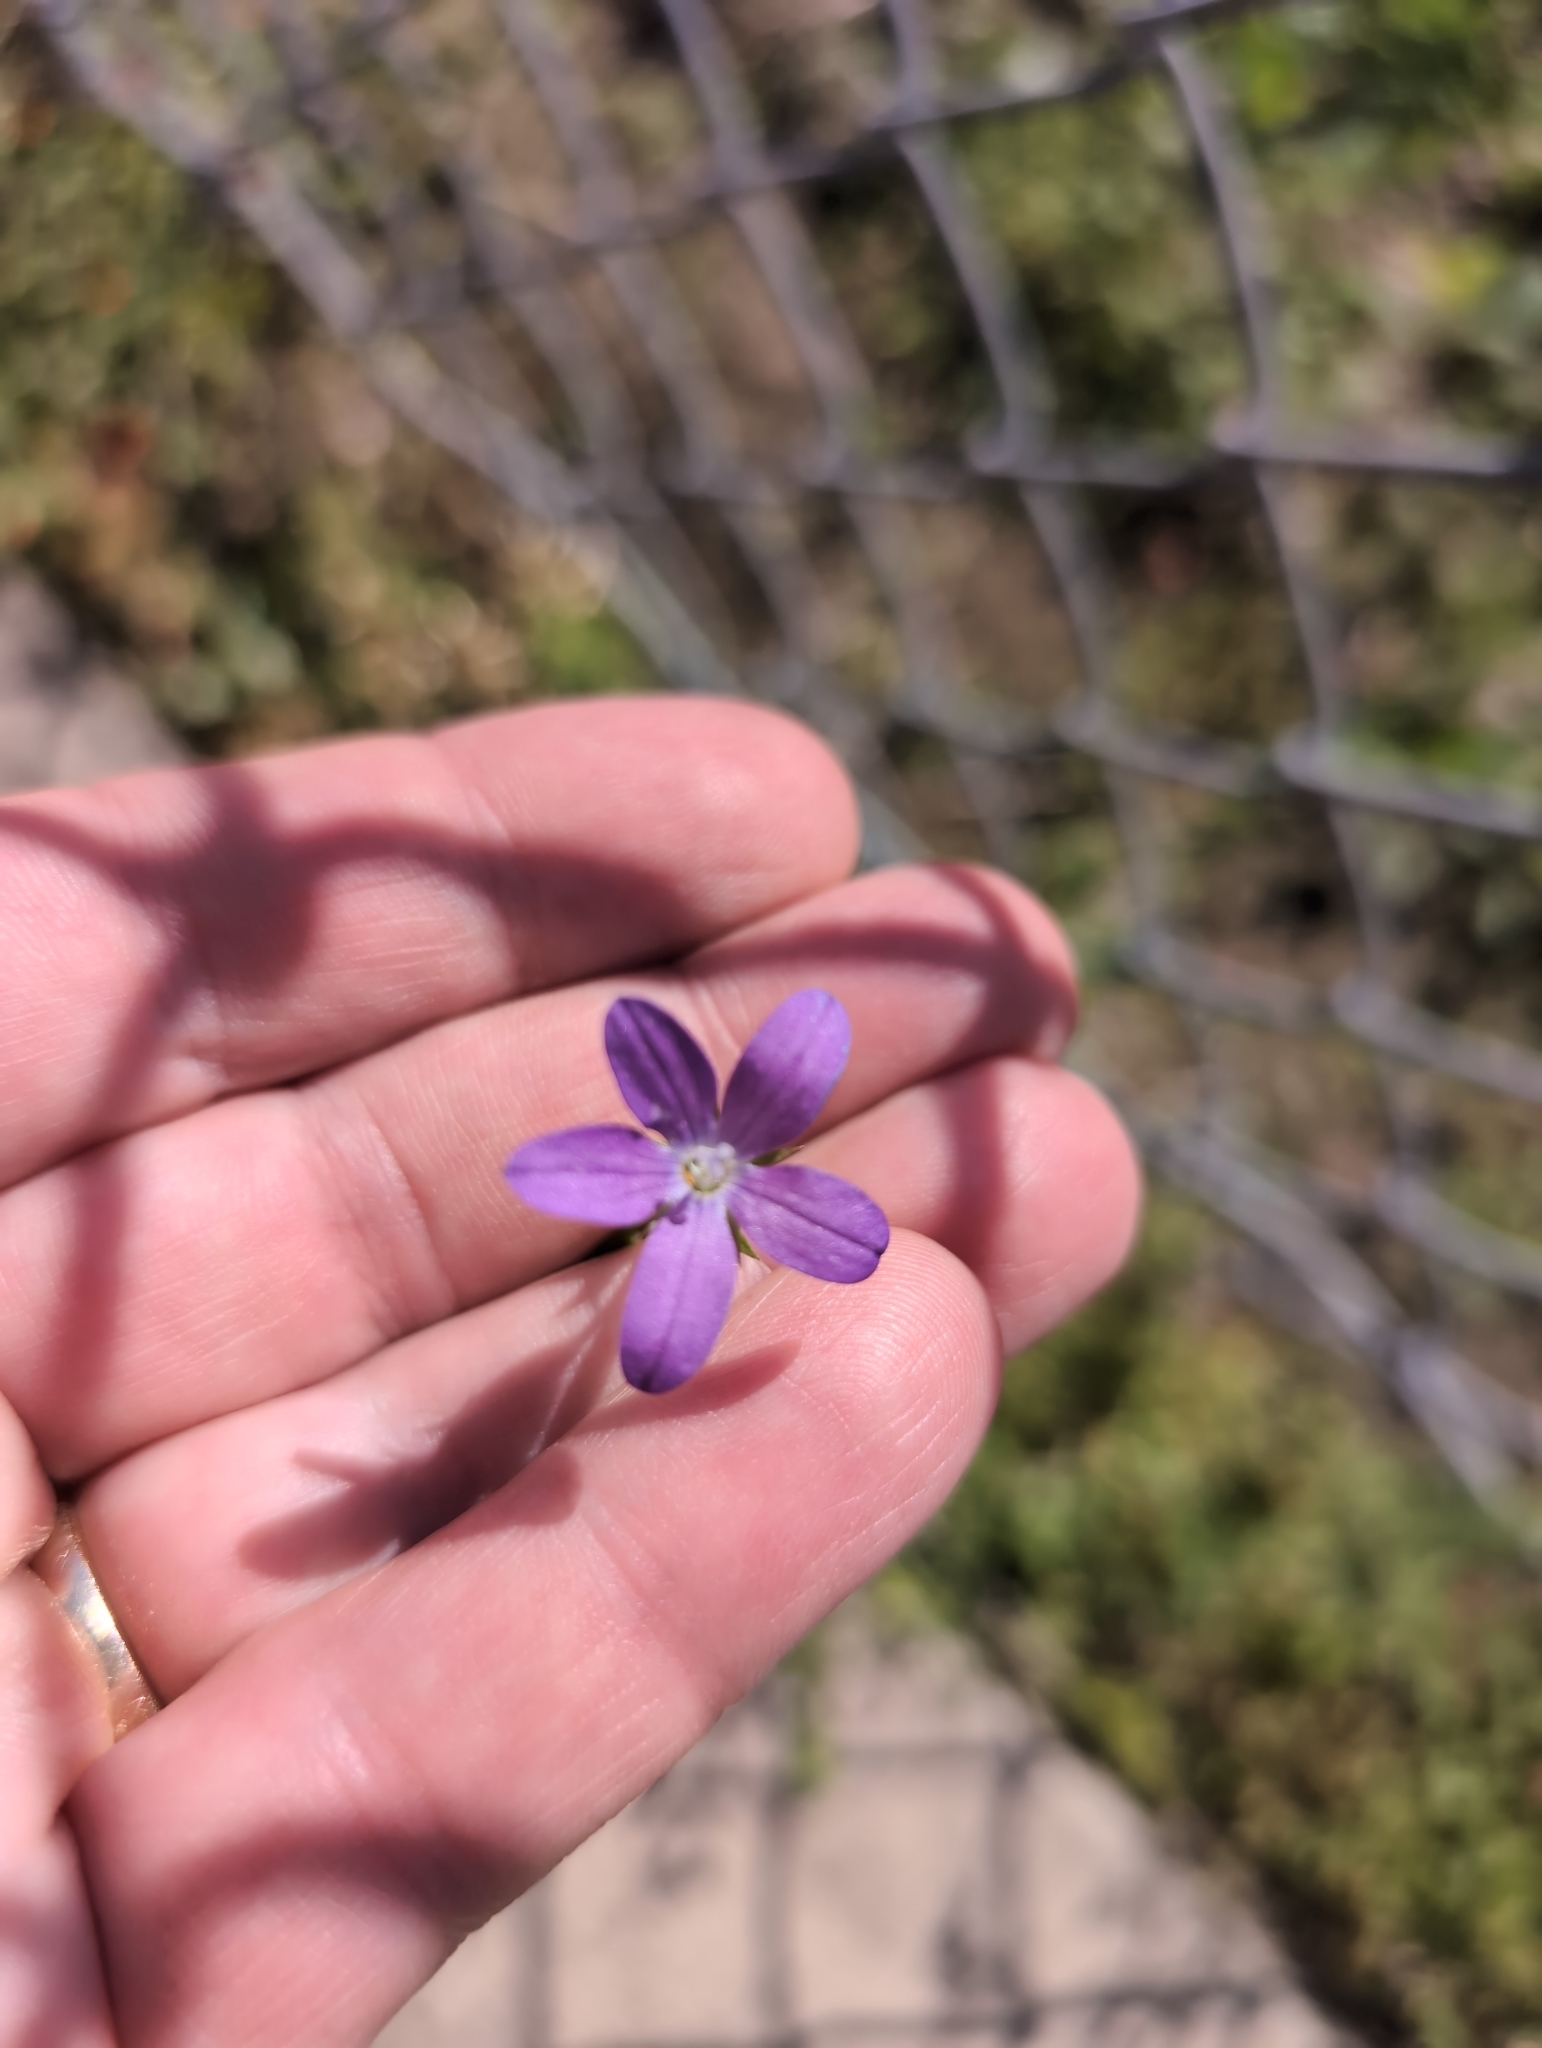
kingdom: Plantae
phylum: Tracheophyta
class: Magnoliopsida
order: Asterales
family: Campanulaceae
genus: Triodanis
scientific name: Triodanis biflora
